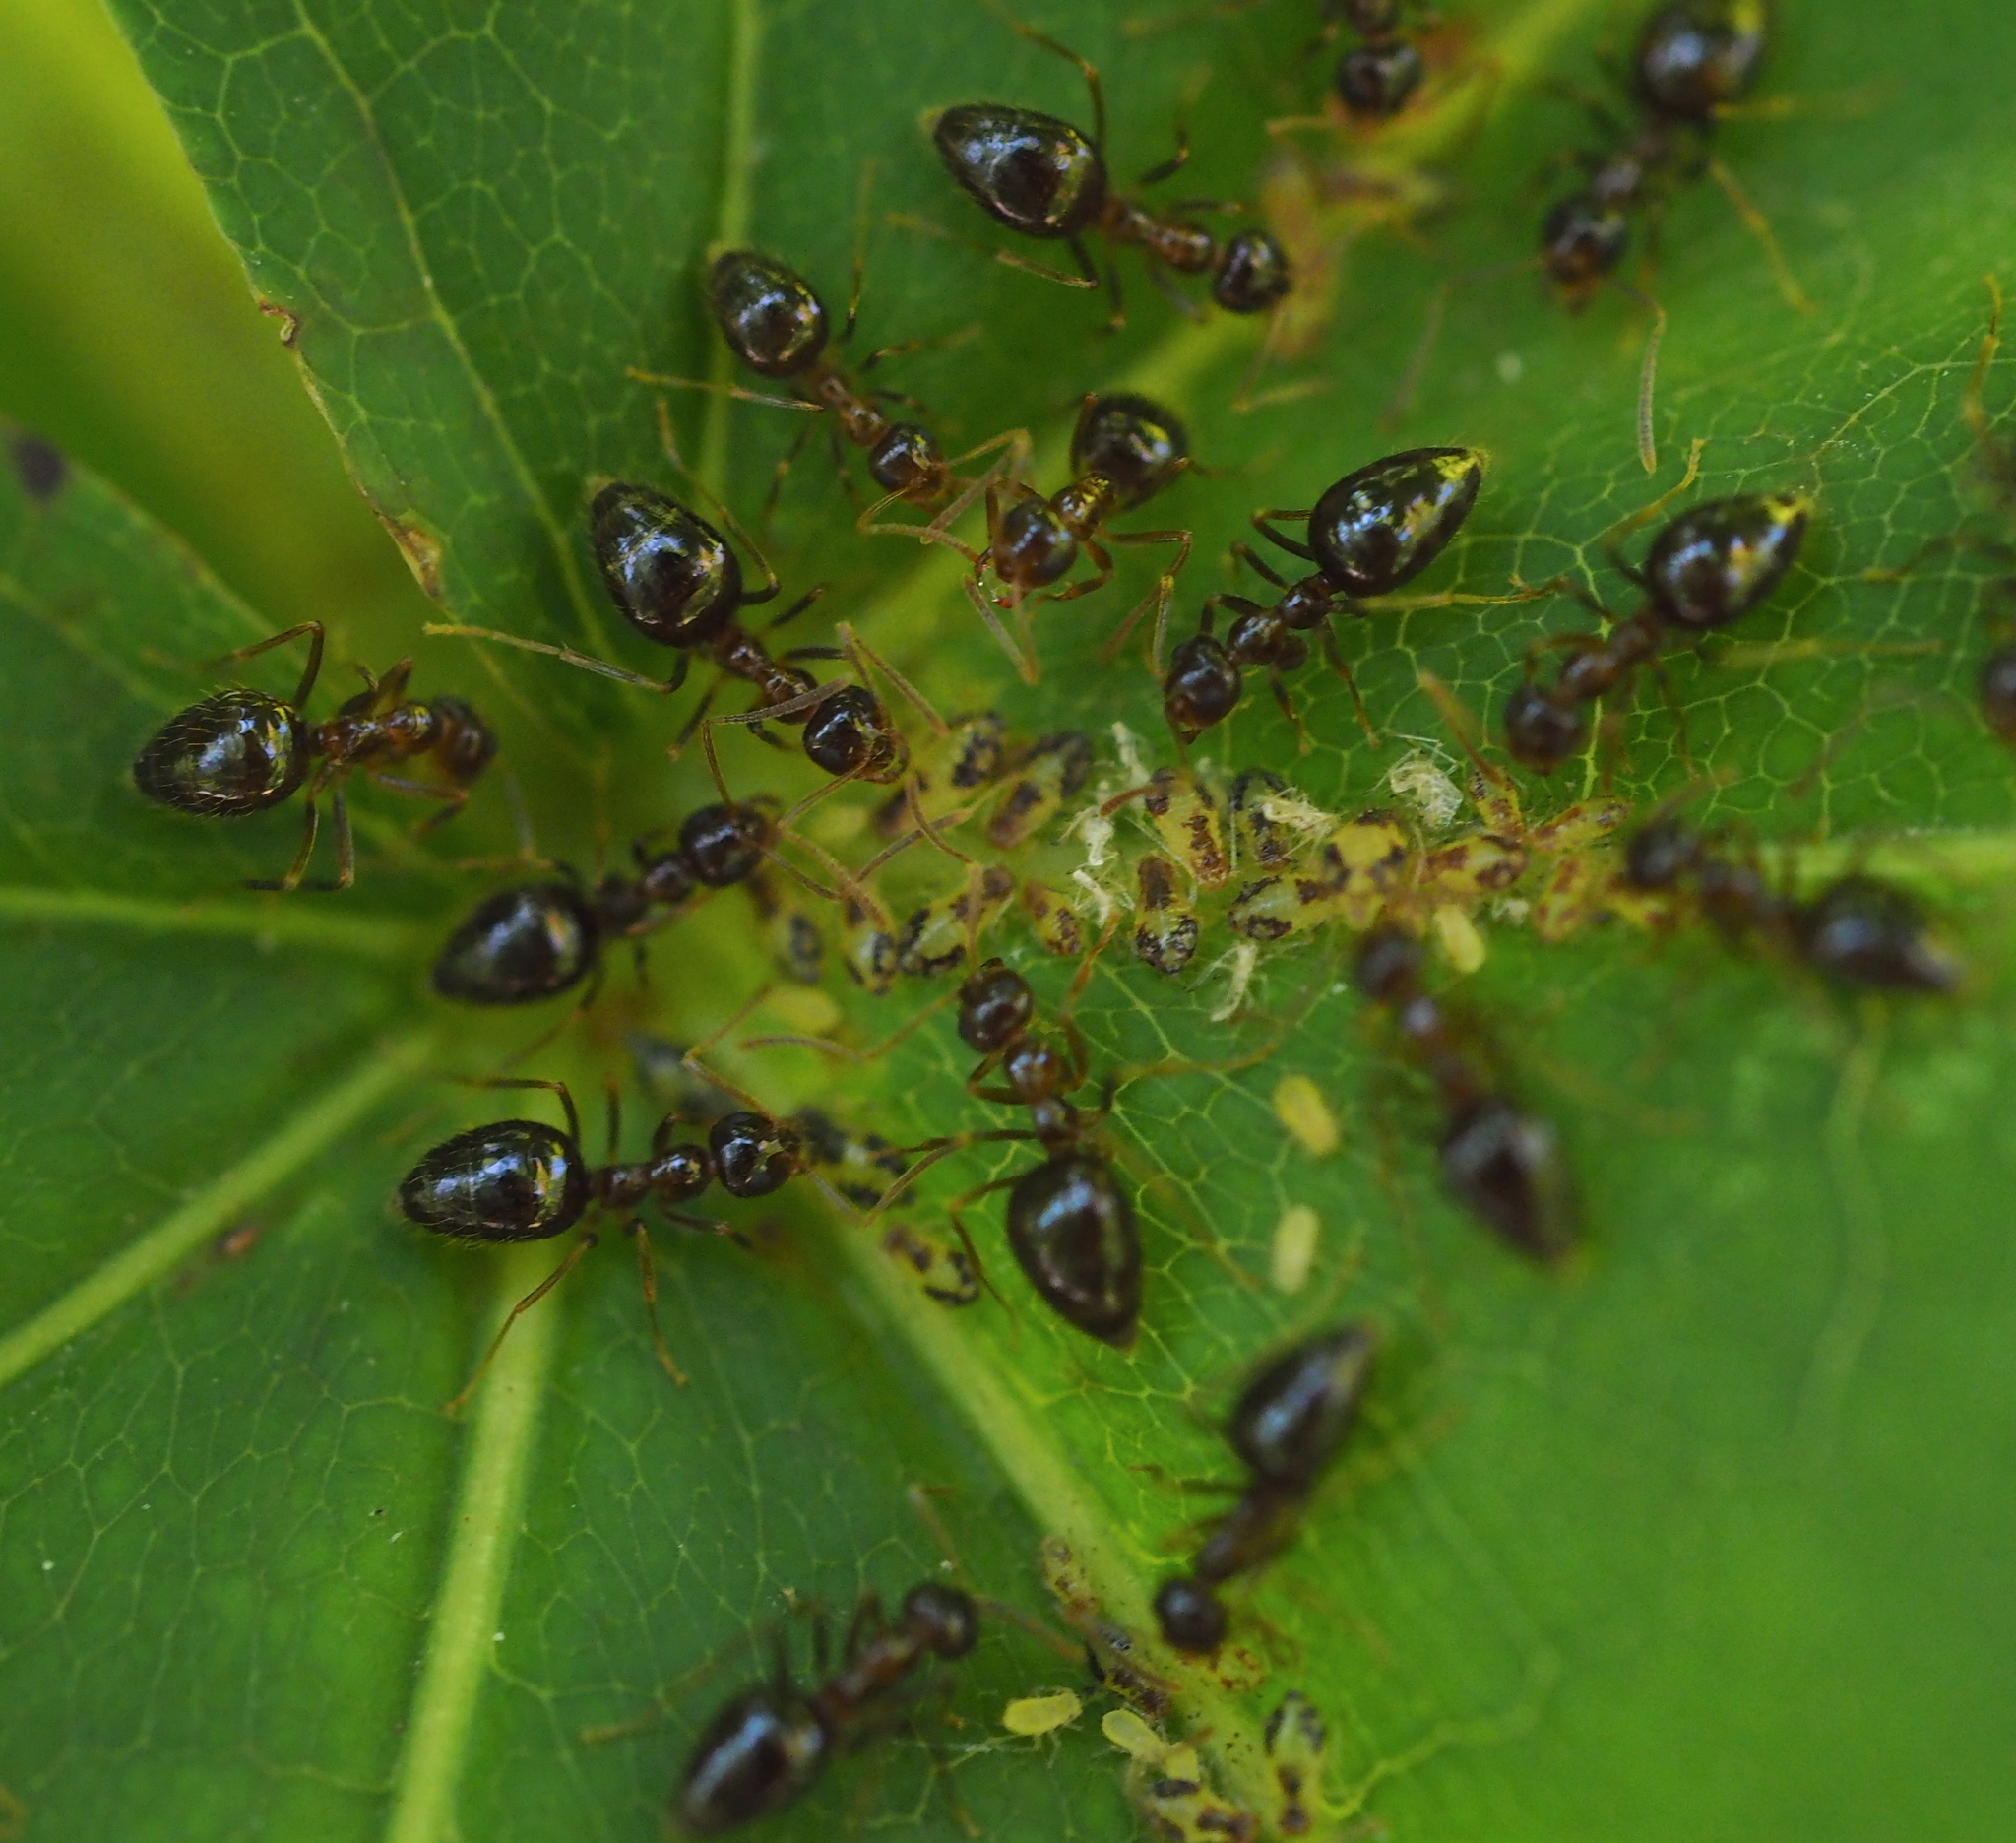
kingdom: Animalia
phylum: Arthropoda
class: Insecta
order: Hymenoptera
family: Formicidae
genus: Prenolepis
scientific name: Prenolepis nitens
